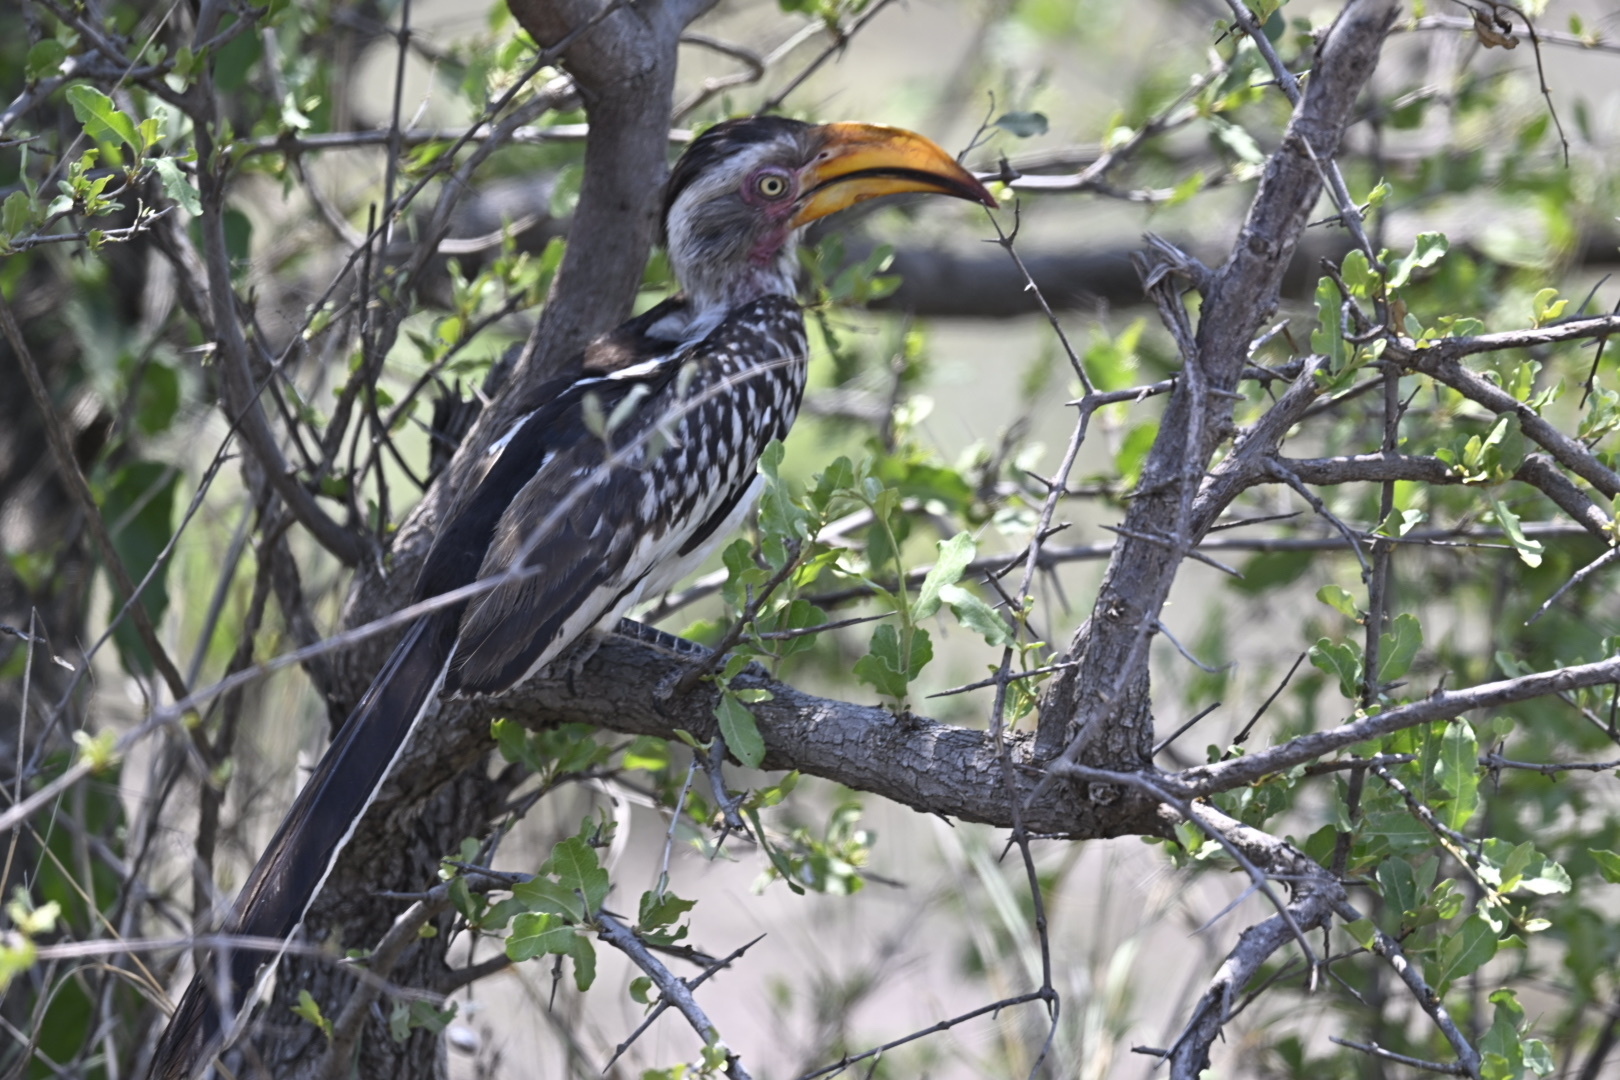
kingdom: Animalia
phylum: Chordata
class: Aves
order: Bucerotiformes
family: Bucerotidae
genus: Tockus
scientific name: Tockus leucomelas
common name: Southern yellow-billed hornbill
